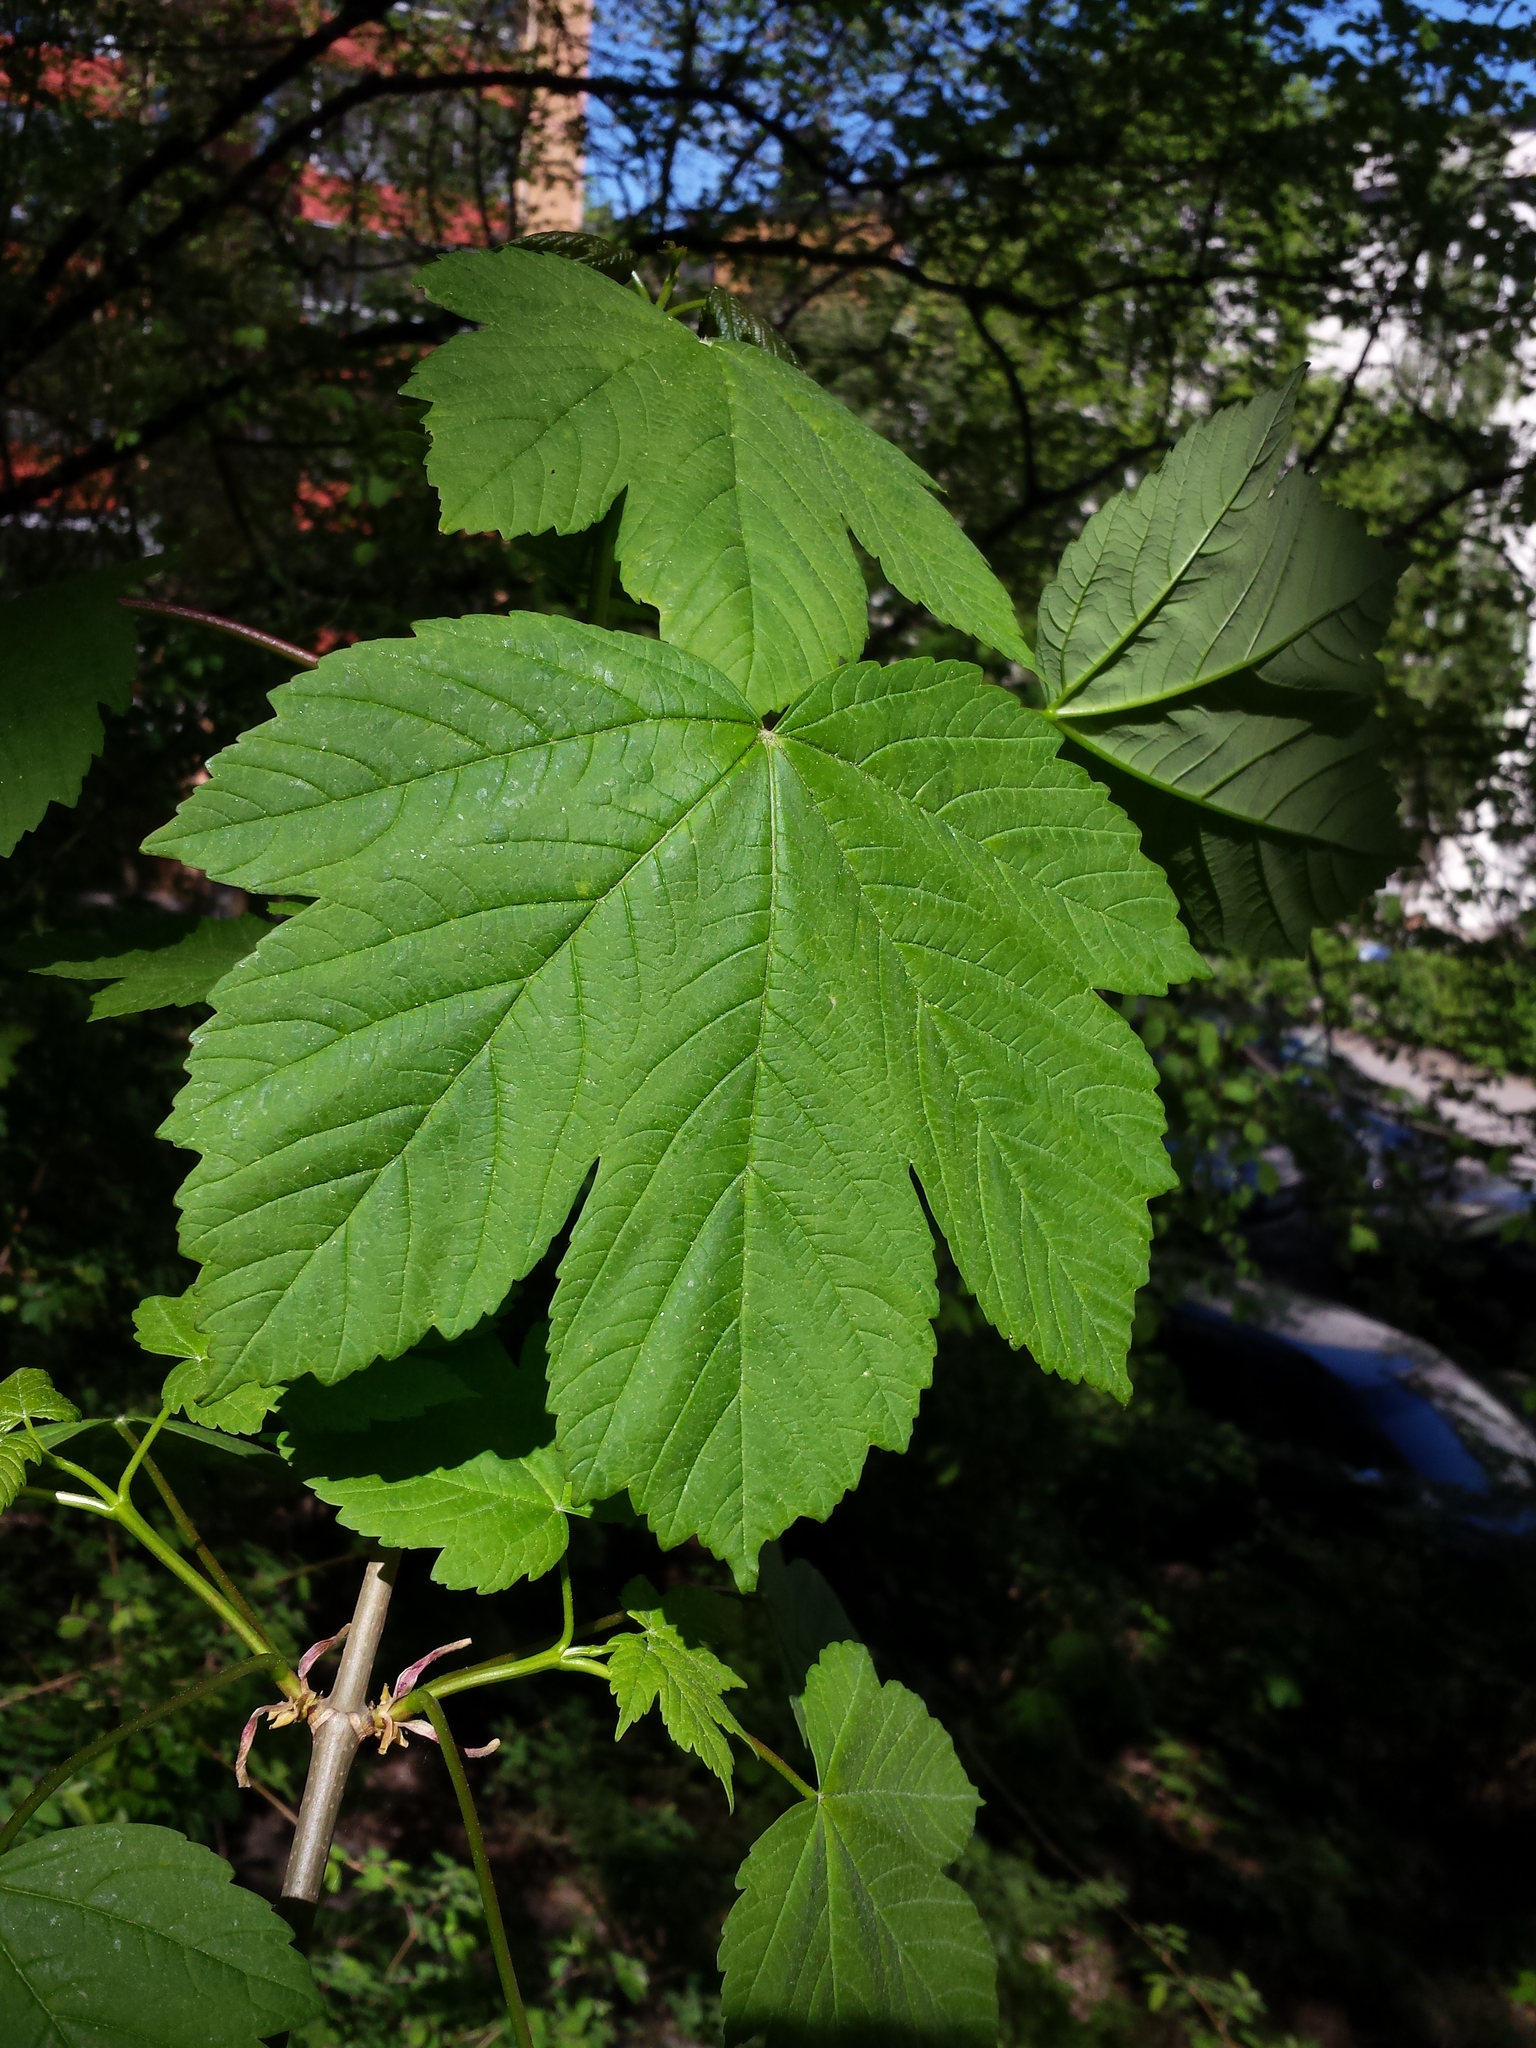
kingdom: Plantae
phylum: Tracheophyta
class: Magnoliopsida
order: Sapindales
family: Sapindaceae
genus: Acer
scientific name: Acer pseudoplatanus
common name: Sycamore
